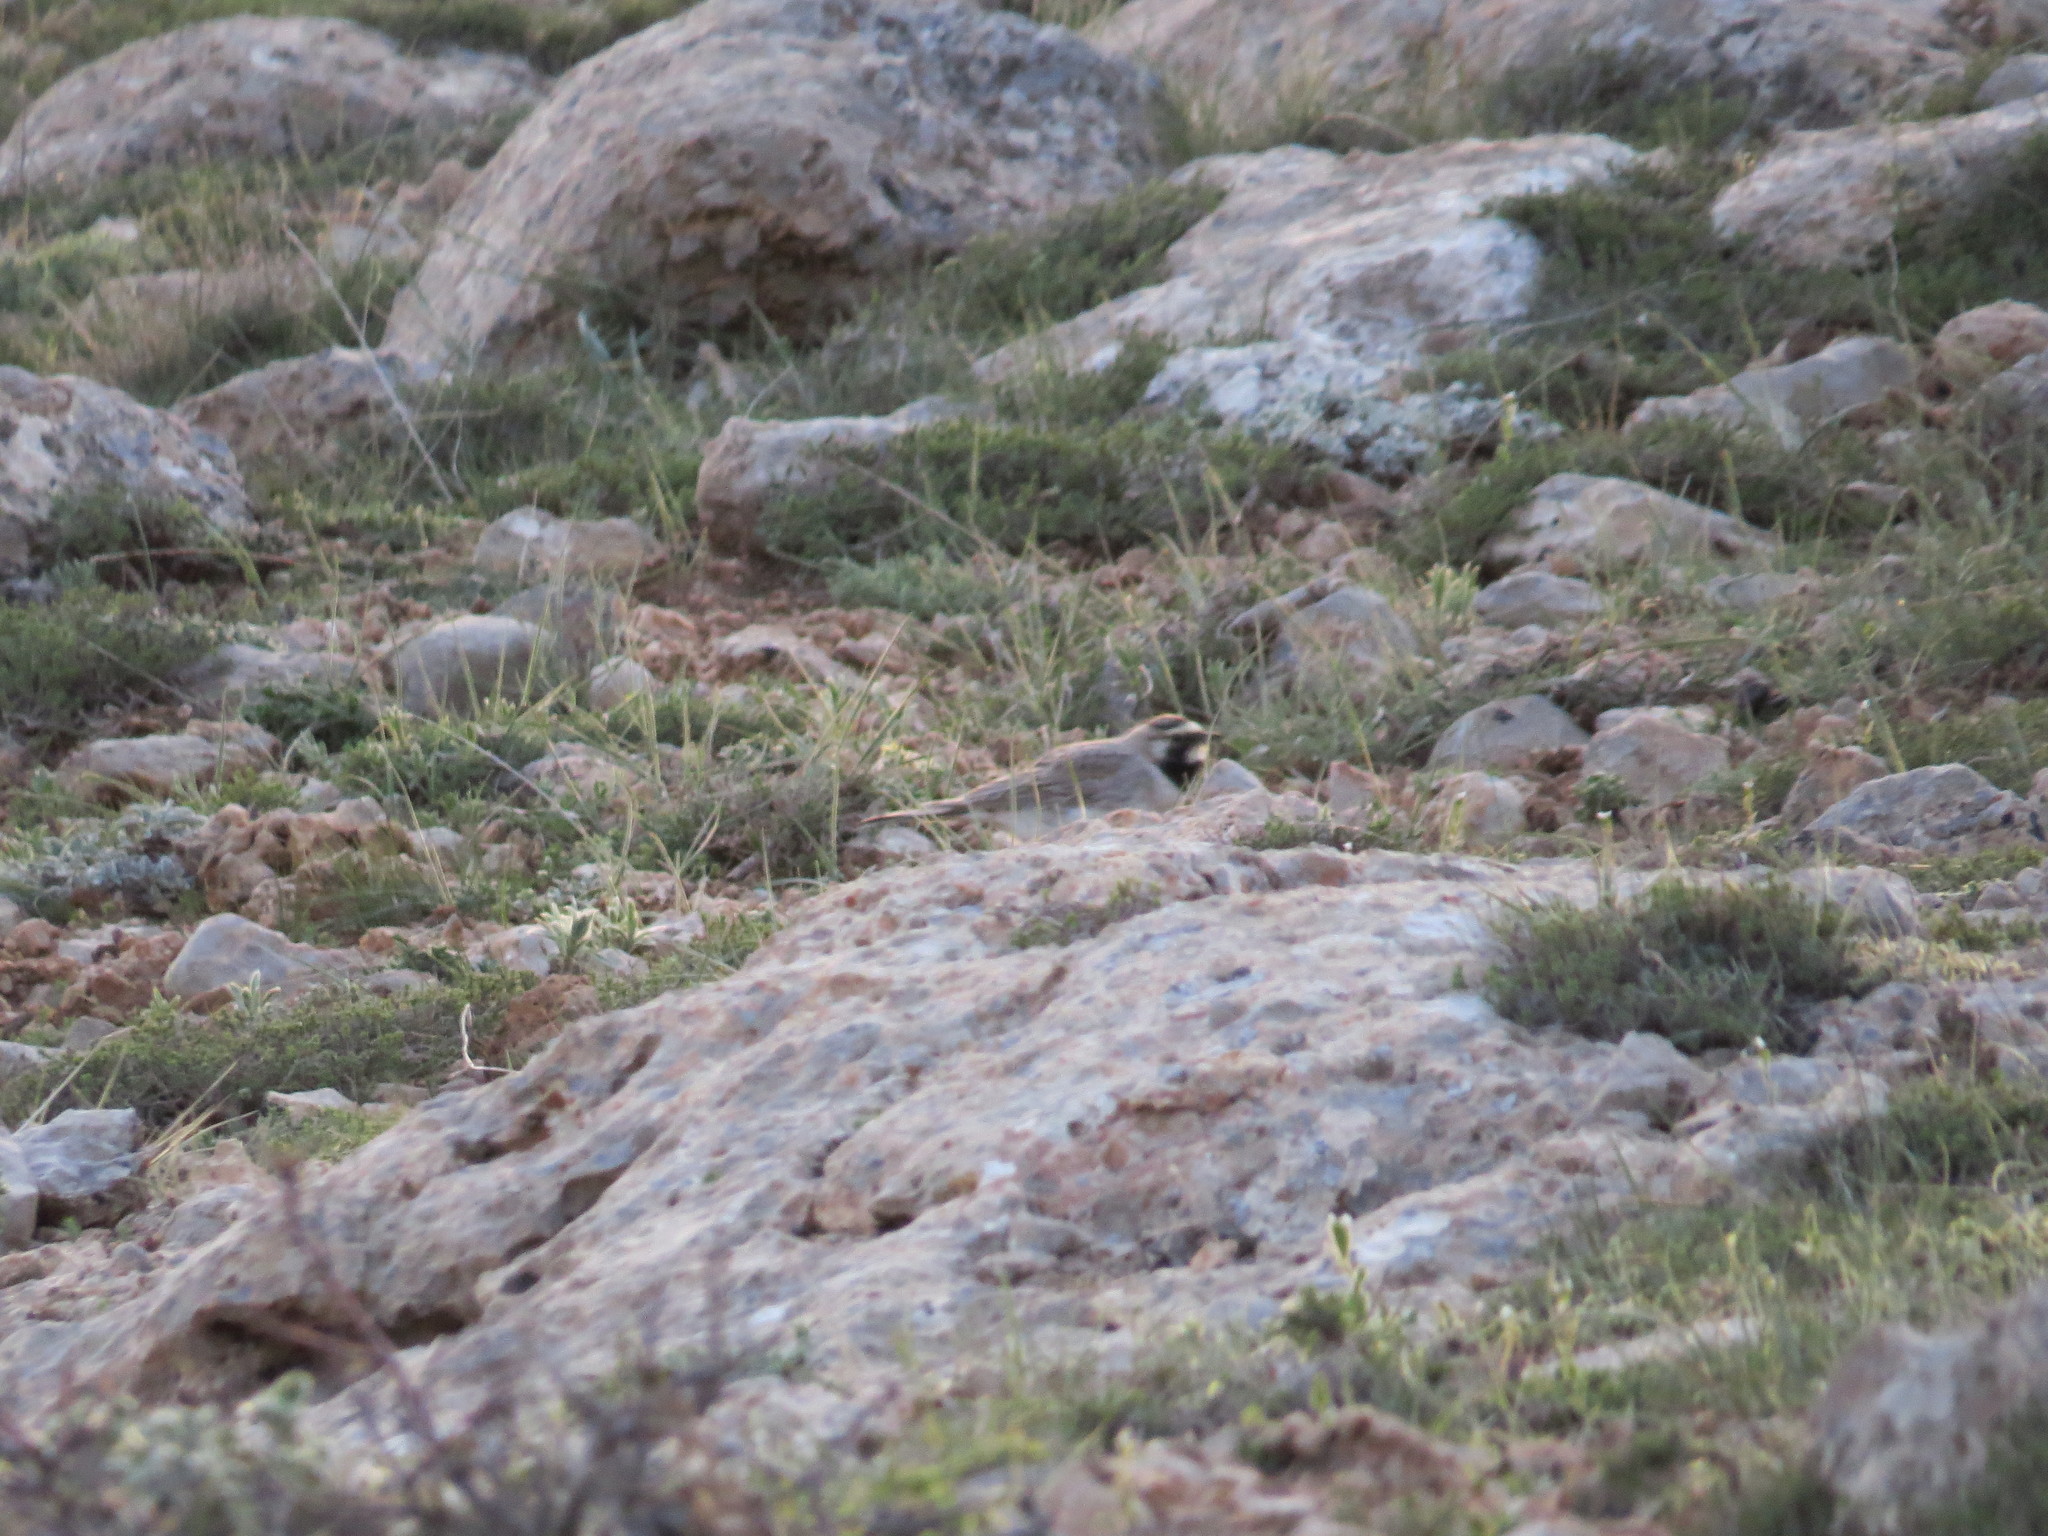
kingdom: Animalia
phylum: Chordata
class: Aves
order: Passeriformes
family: Alaudidae
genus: Eremophila
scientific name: Eremophila alpestris
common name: Horned lark
